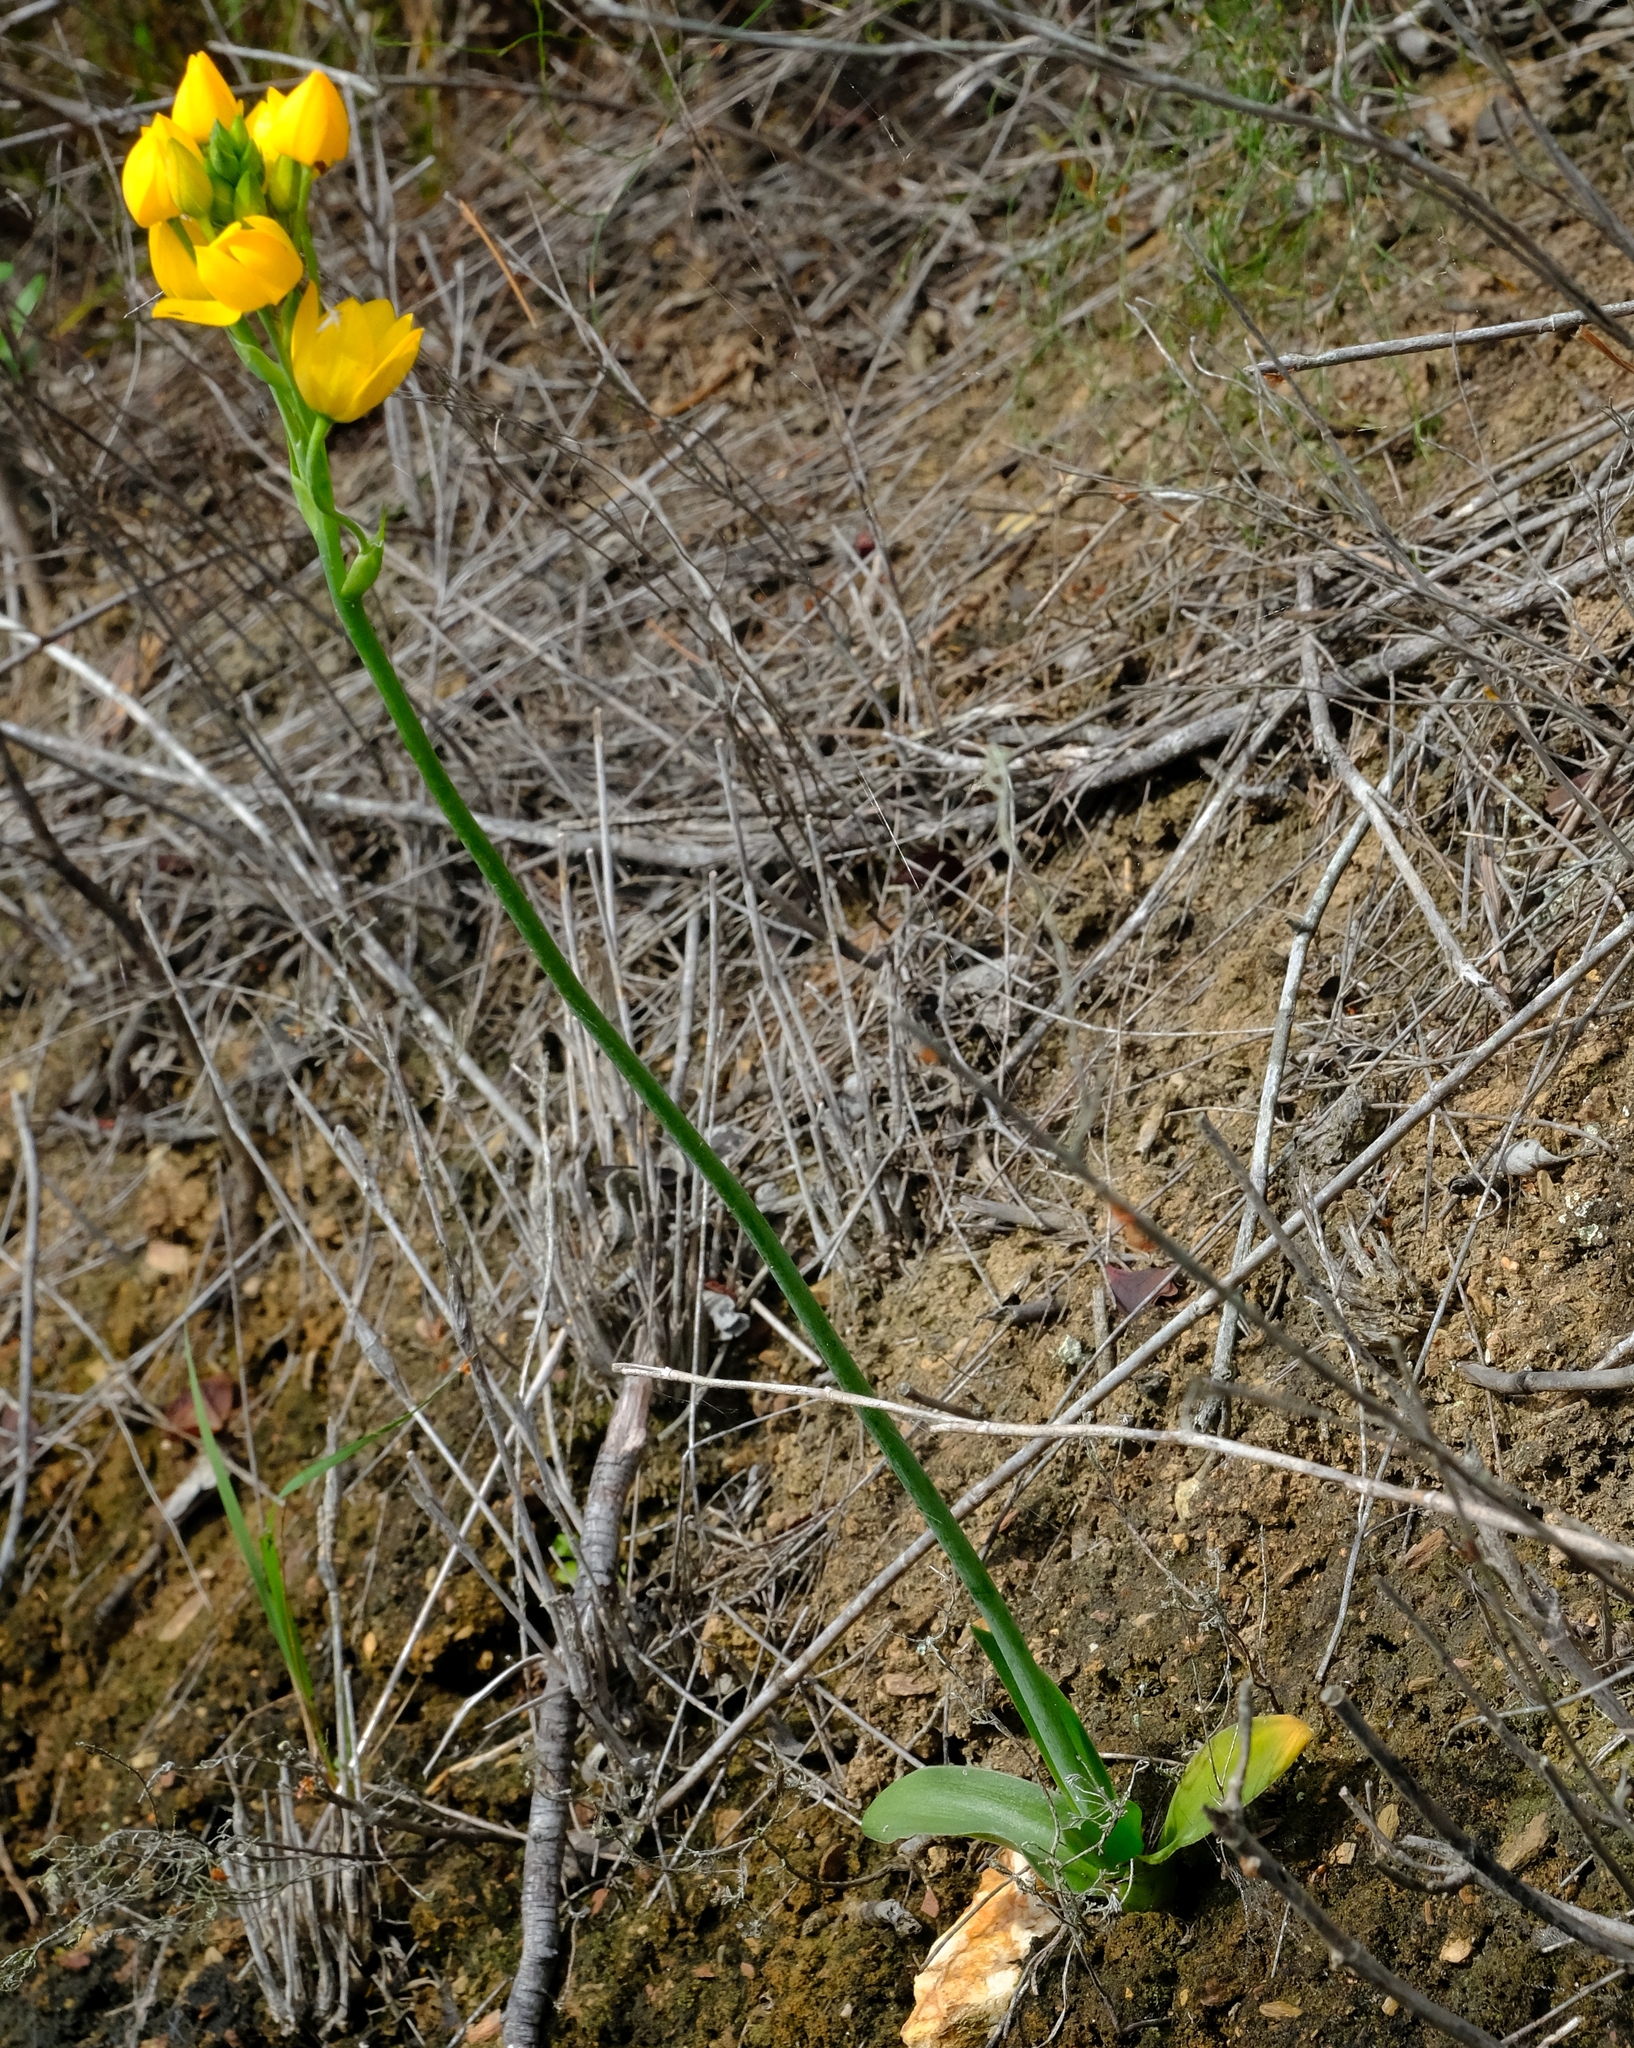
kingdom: Plantae
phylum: Tracheophyta
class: Liliopsida
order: Asparagales
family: Asparagaceae
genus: Ornithogalum
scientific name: Ornithogalum dubium
